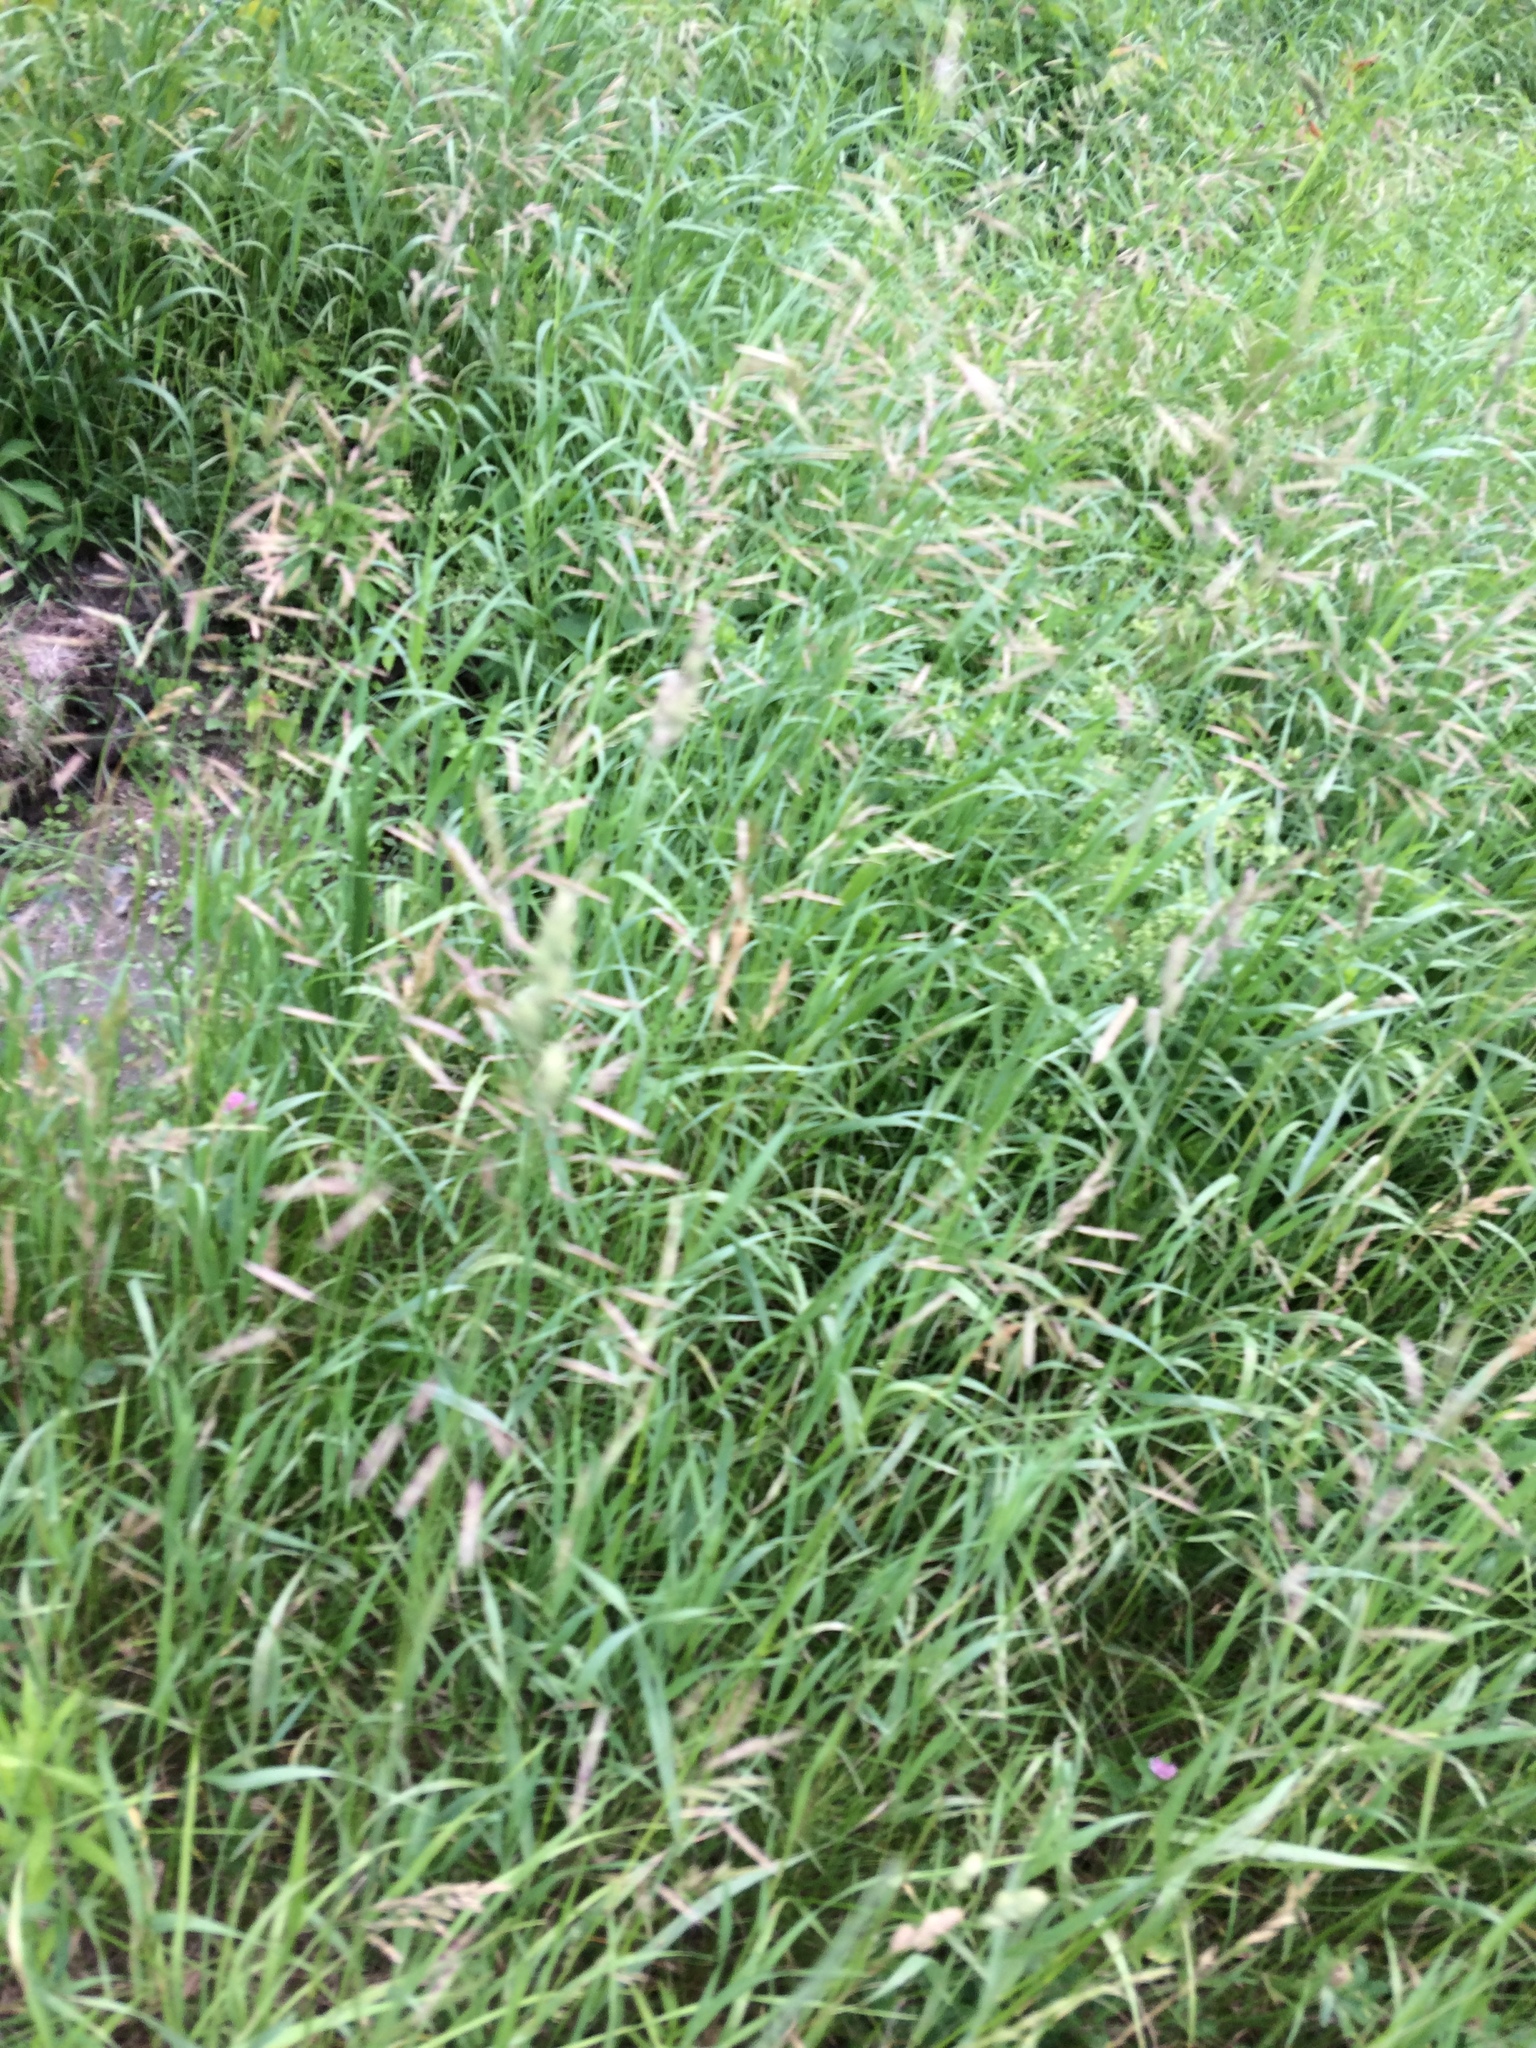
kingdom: Plantae
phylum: Tracheophyta
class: Liliopsida
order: Poales
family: Poaceae
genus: Bromus
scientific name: Bromus inermis
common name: Smooth brome
